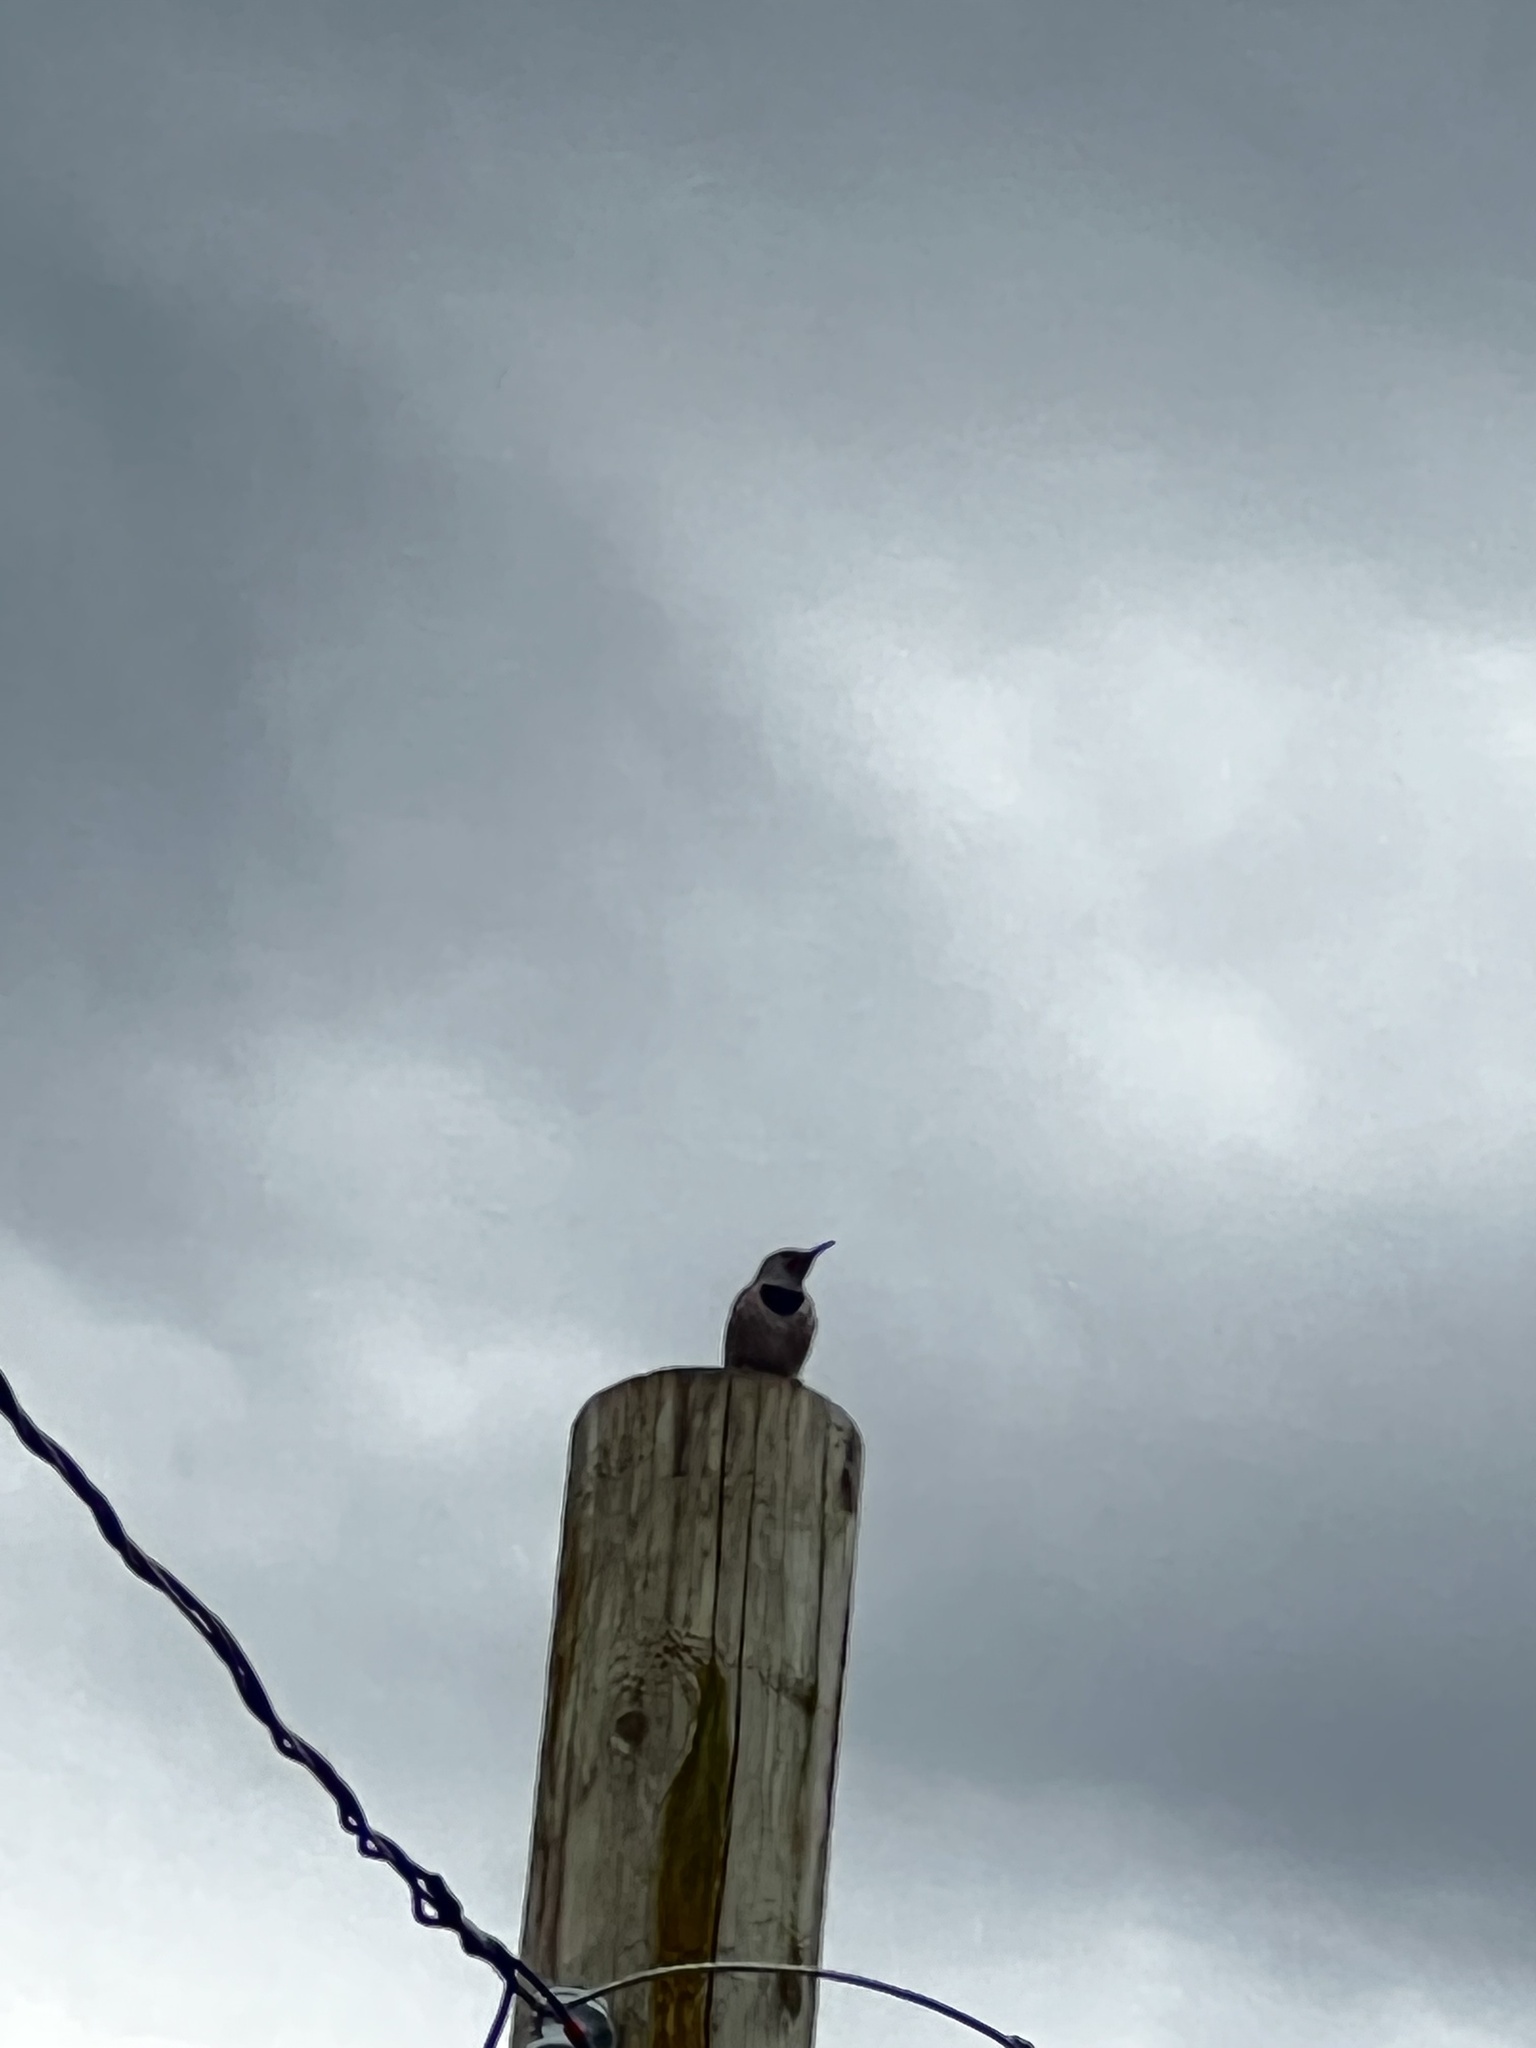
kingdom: Animalia
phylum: Chordata
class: Aves
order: Piciformes
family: Picidae
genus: Colaptes
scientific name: Colaptes auratus
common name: Northern flicker
